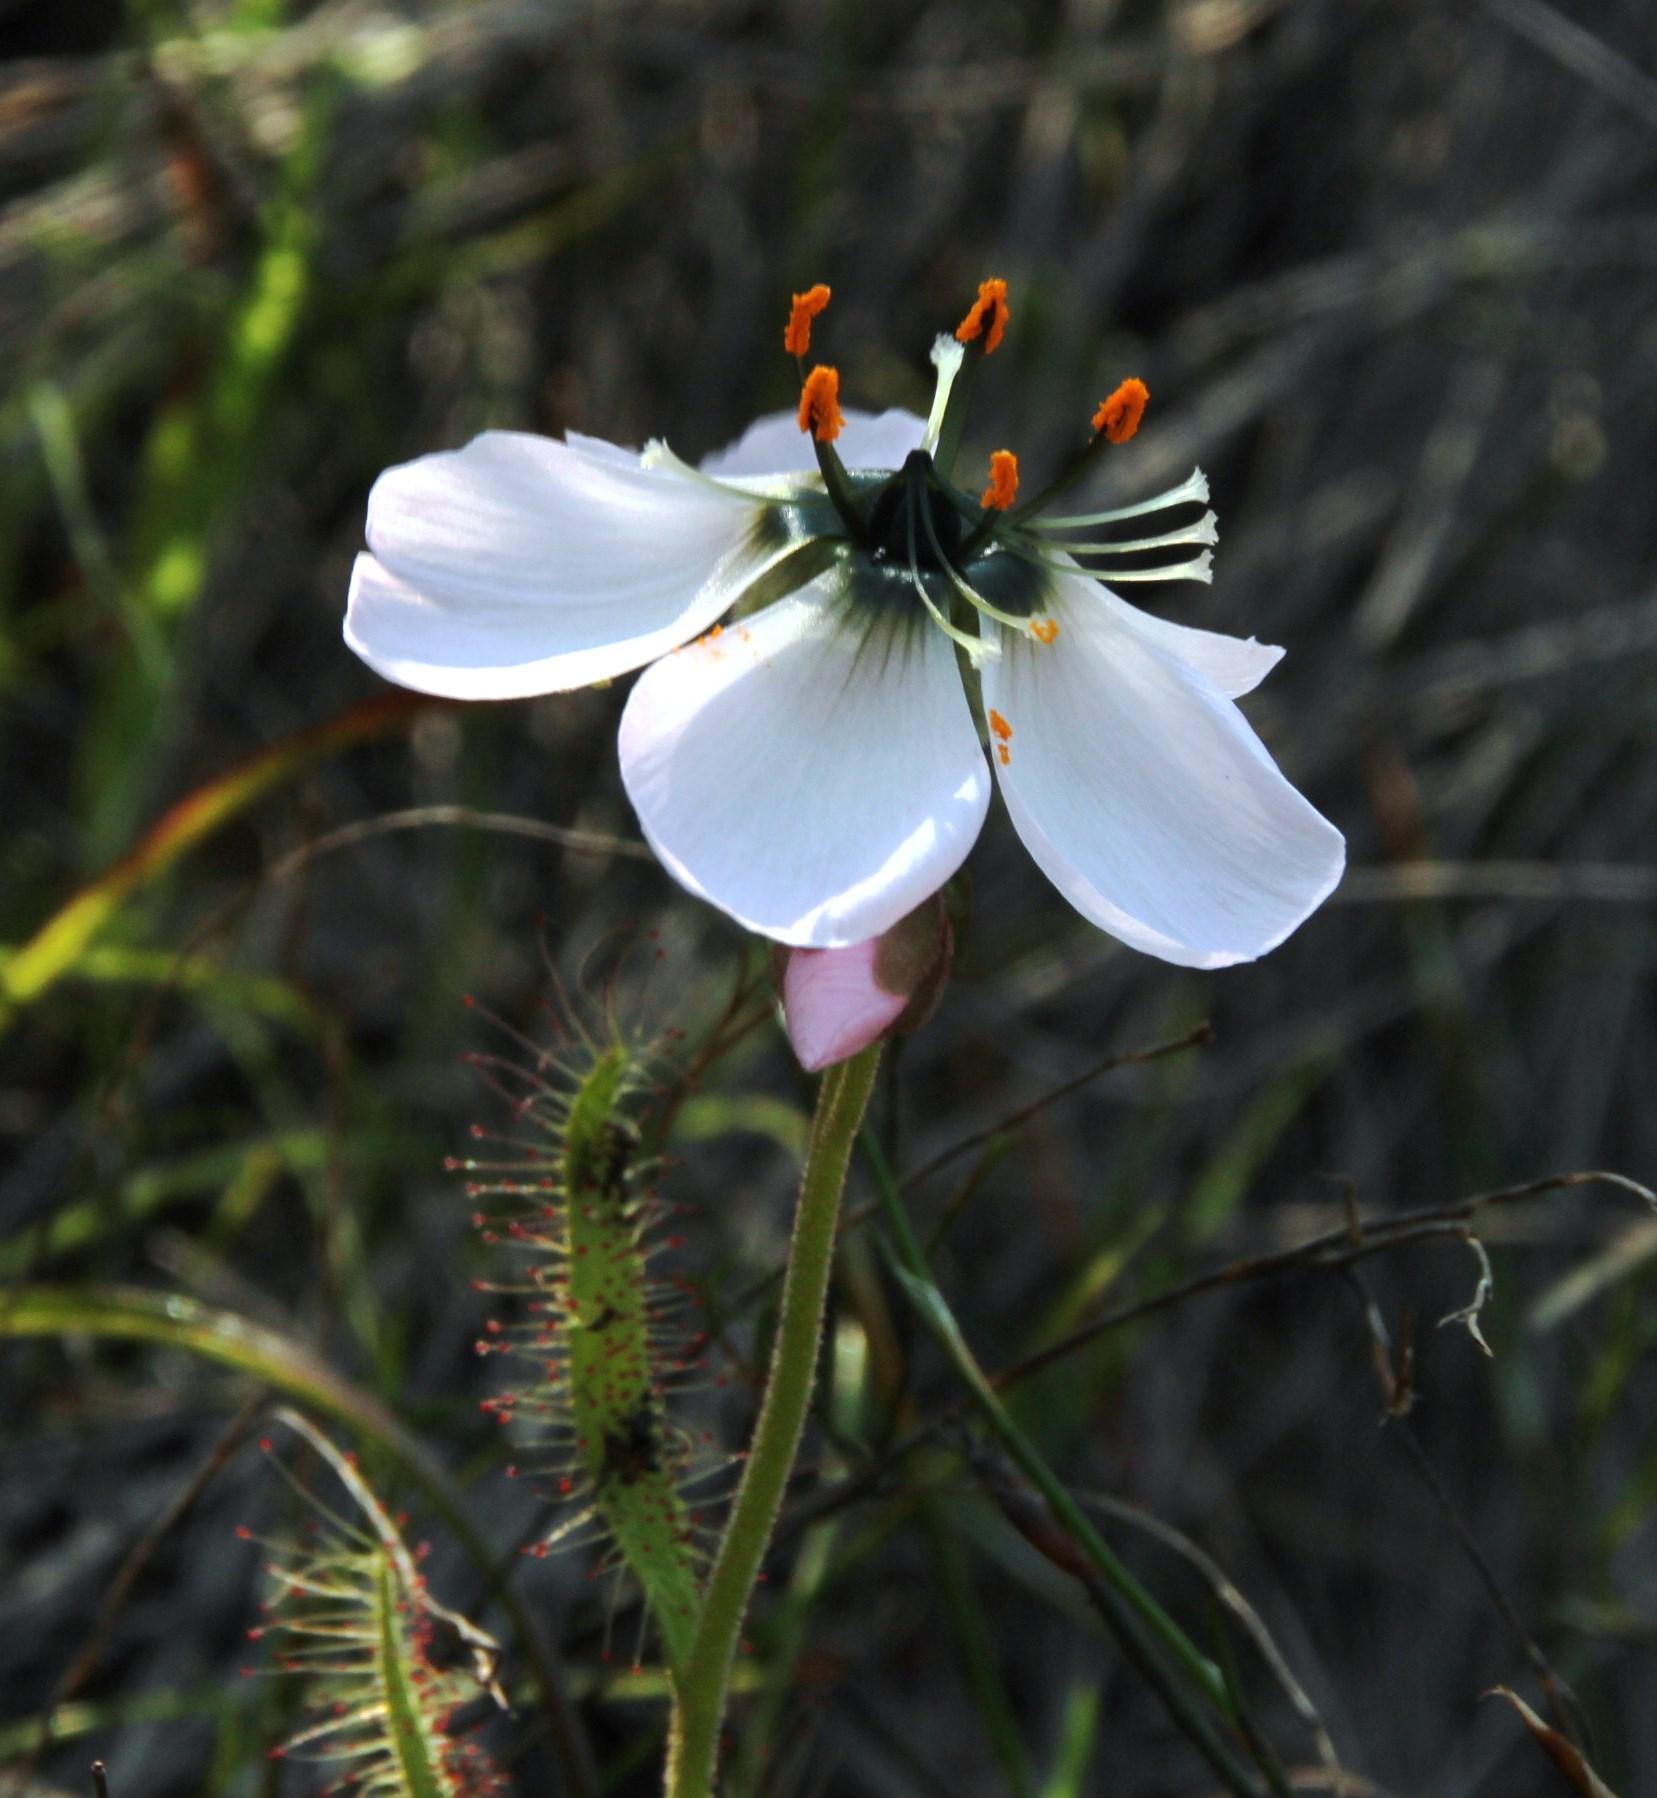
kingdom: Plantae
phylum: Tracheophyta
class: Magnoliopsida
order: Caryophyllales
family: Droseraceae
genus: Drosera
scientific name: Drosera cistiflora
